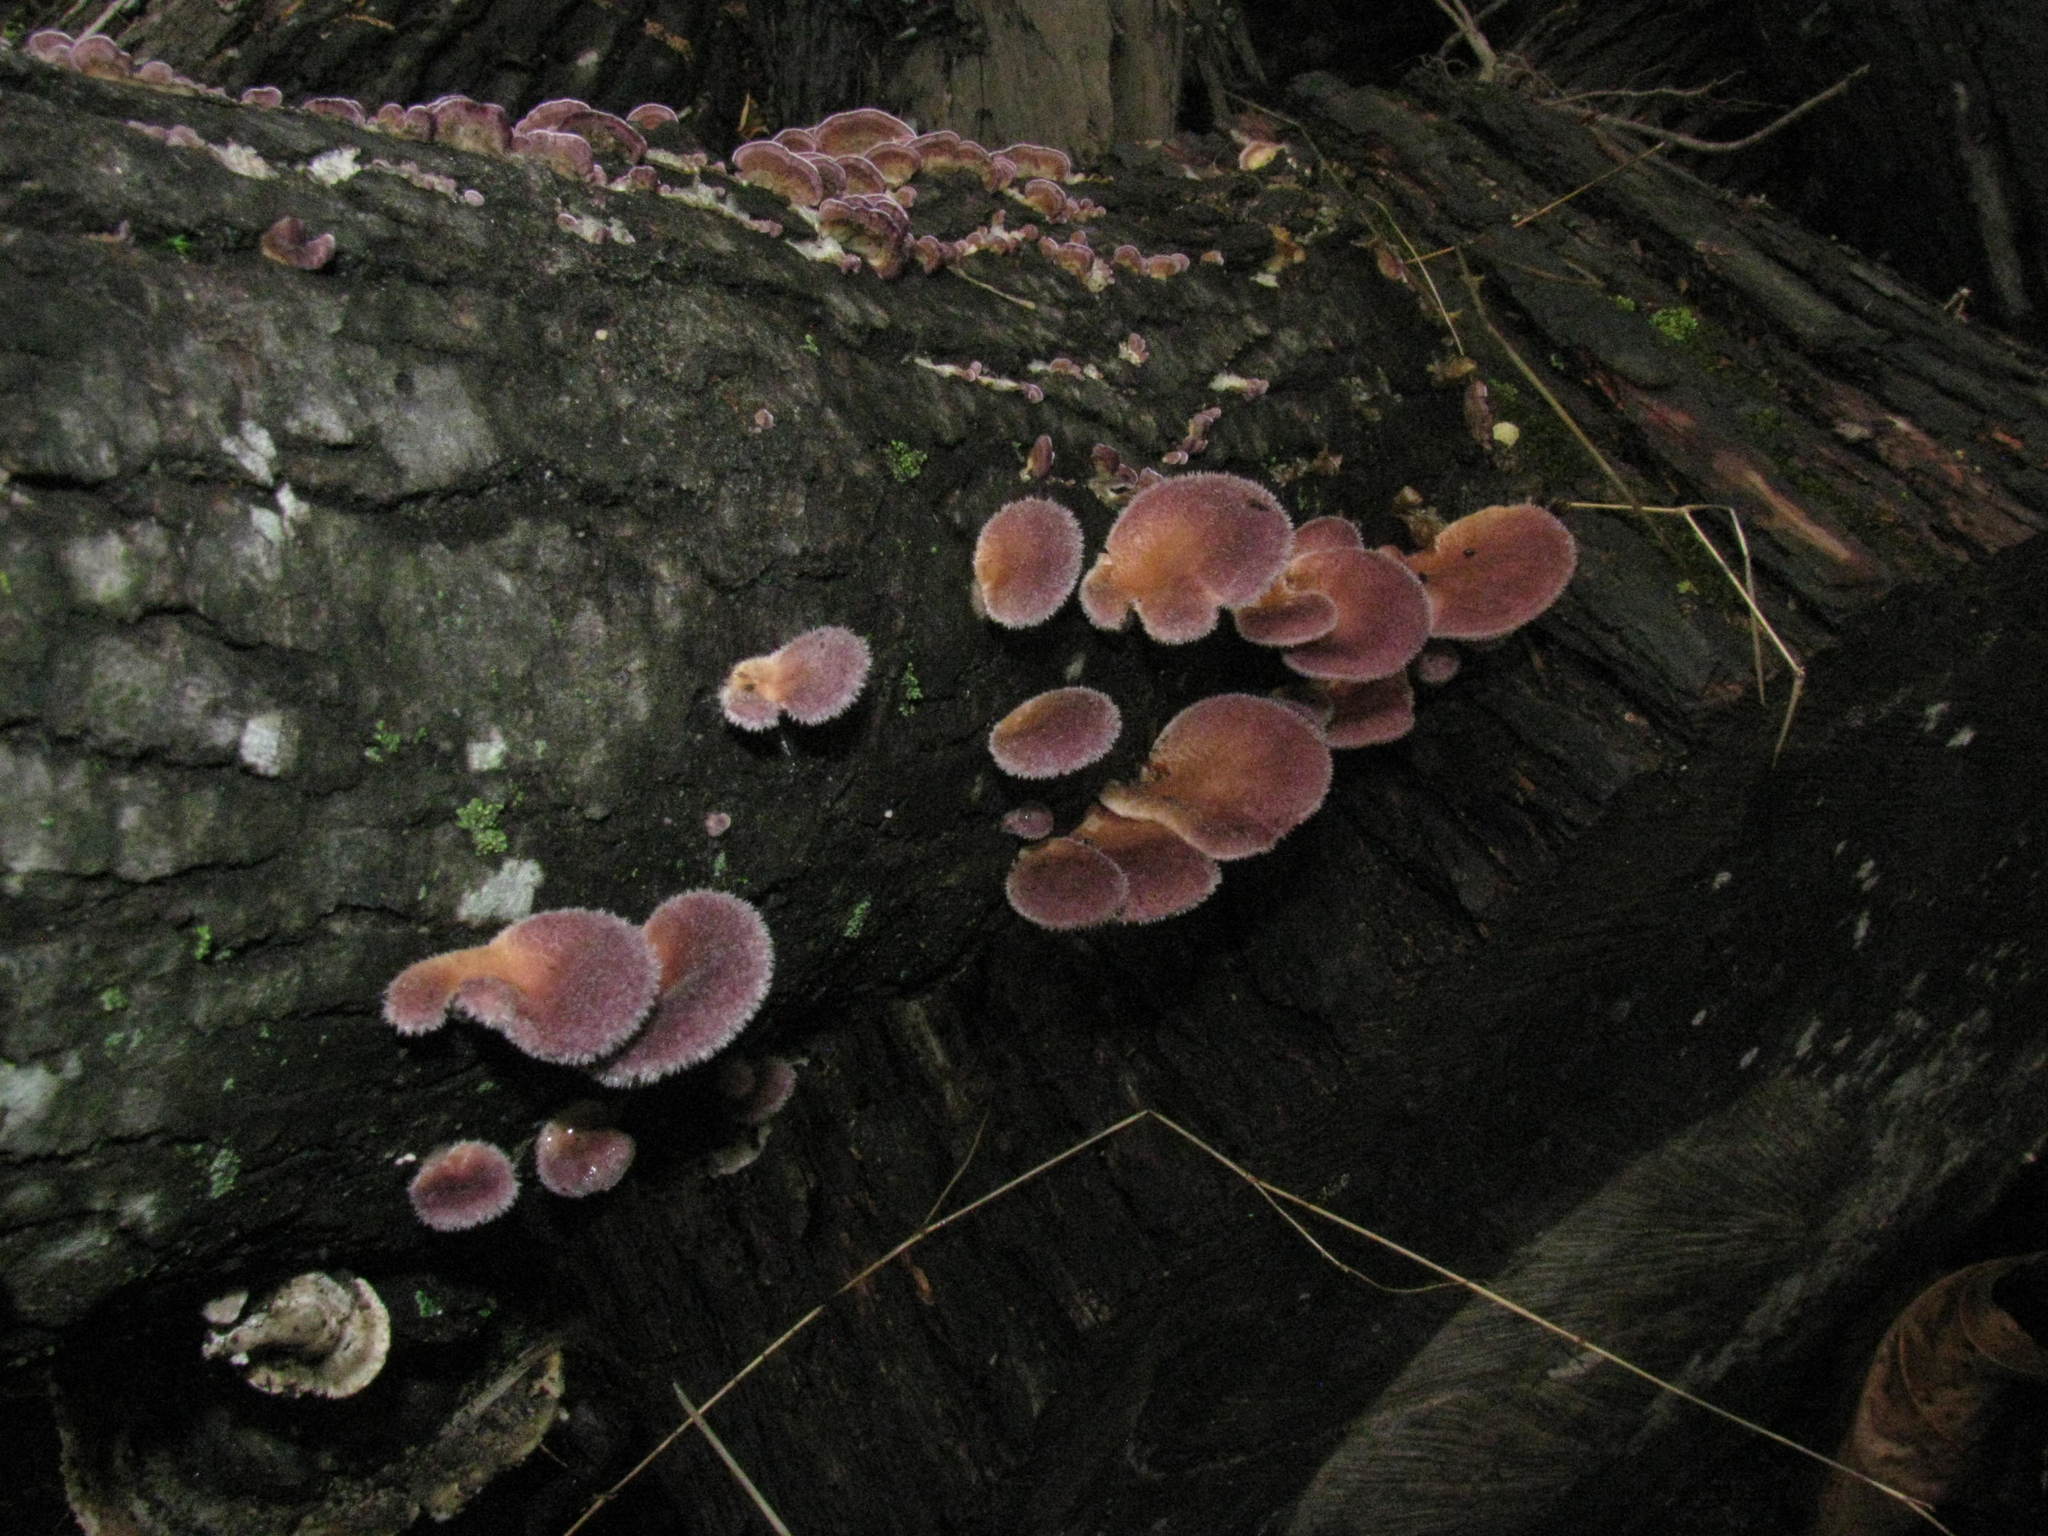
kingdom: Fungi
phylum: Basidiomycota
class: Agaricomycetes
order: Polyporales
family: Panaceae
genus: Panus
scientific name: Panus neostrigosus
